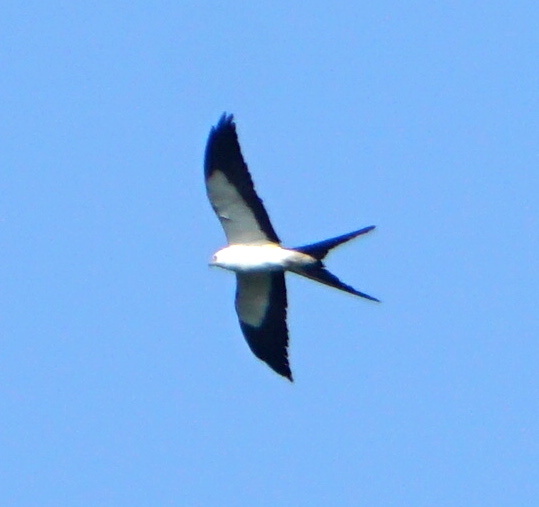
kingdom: Animalia
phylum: Chordata
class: Aves
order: Accipitriformes
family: Accipitridae
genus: Elanoides
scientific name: Elanoides forficatus
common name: Swallow-tailed kite
